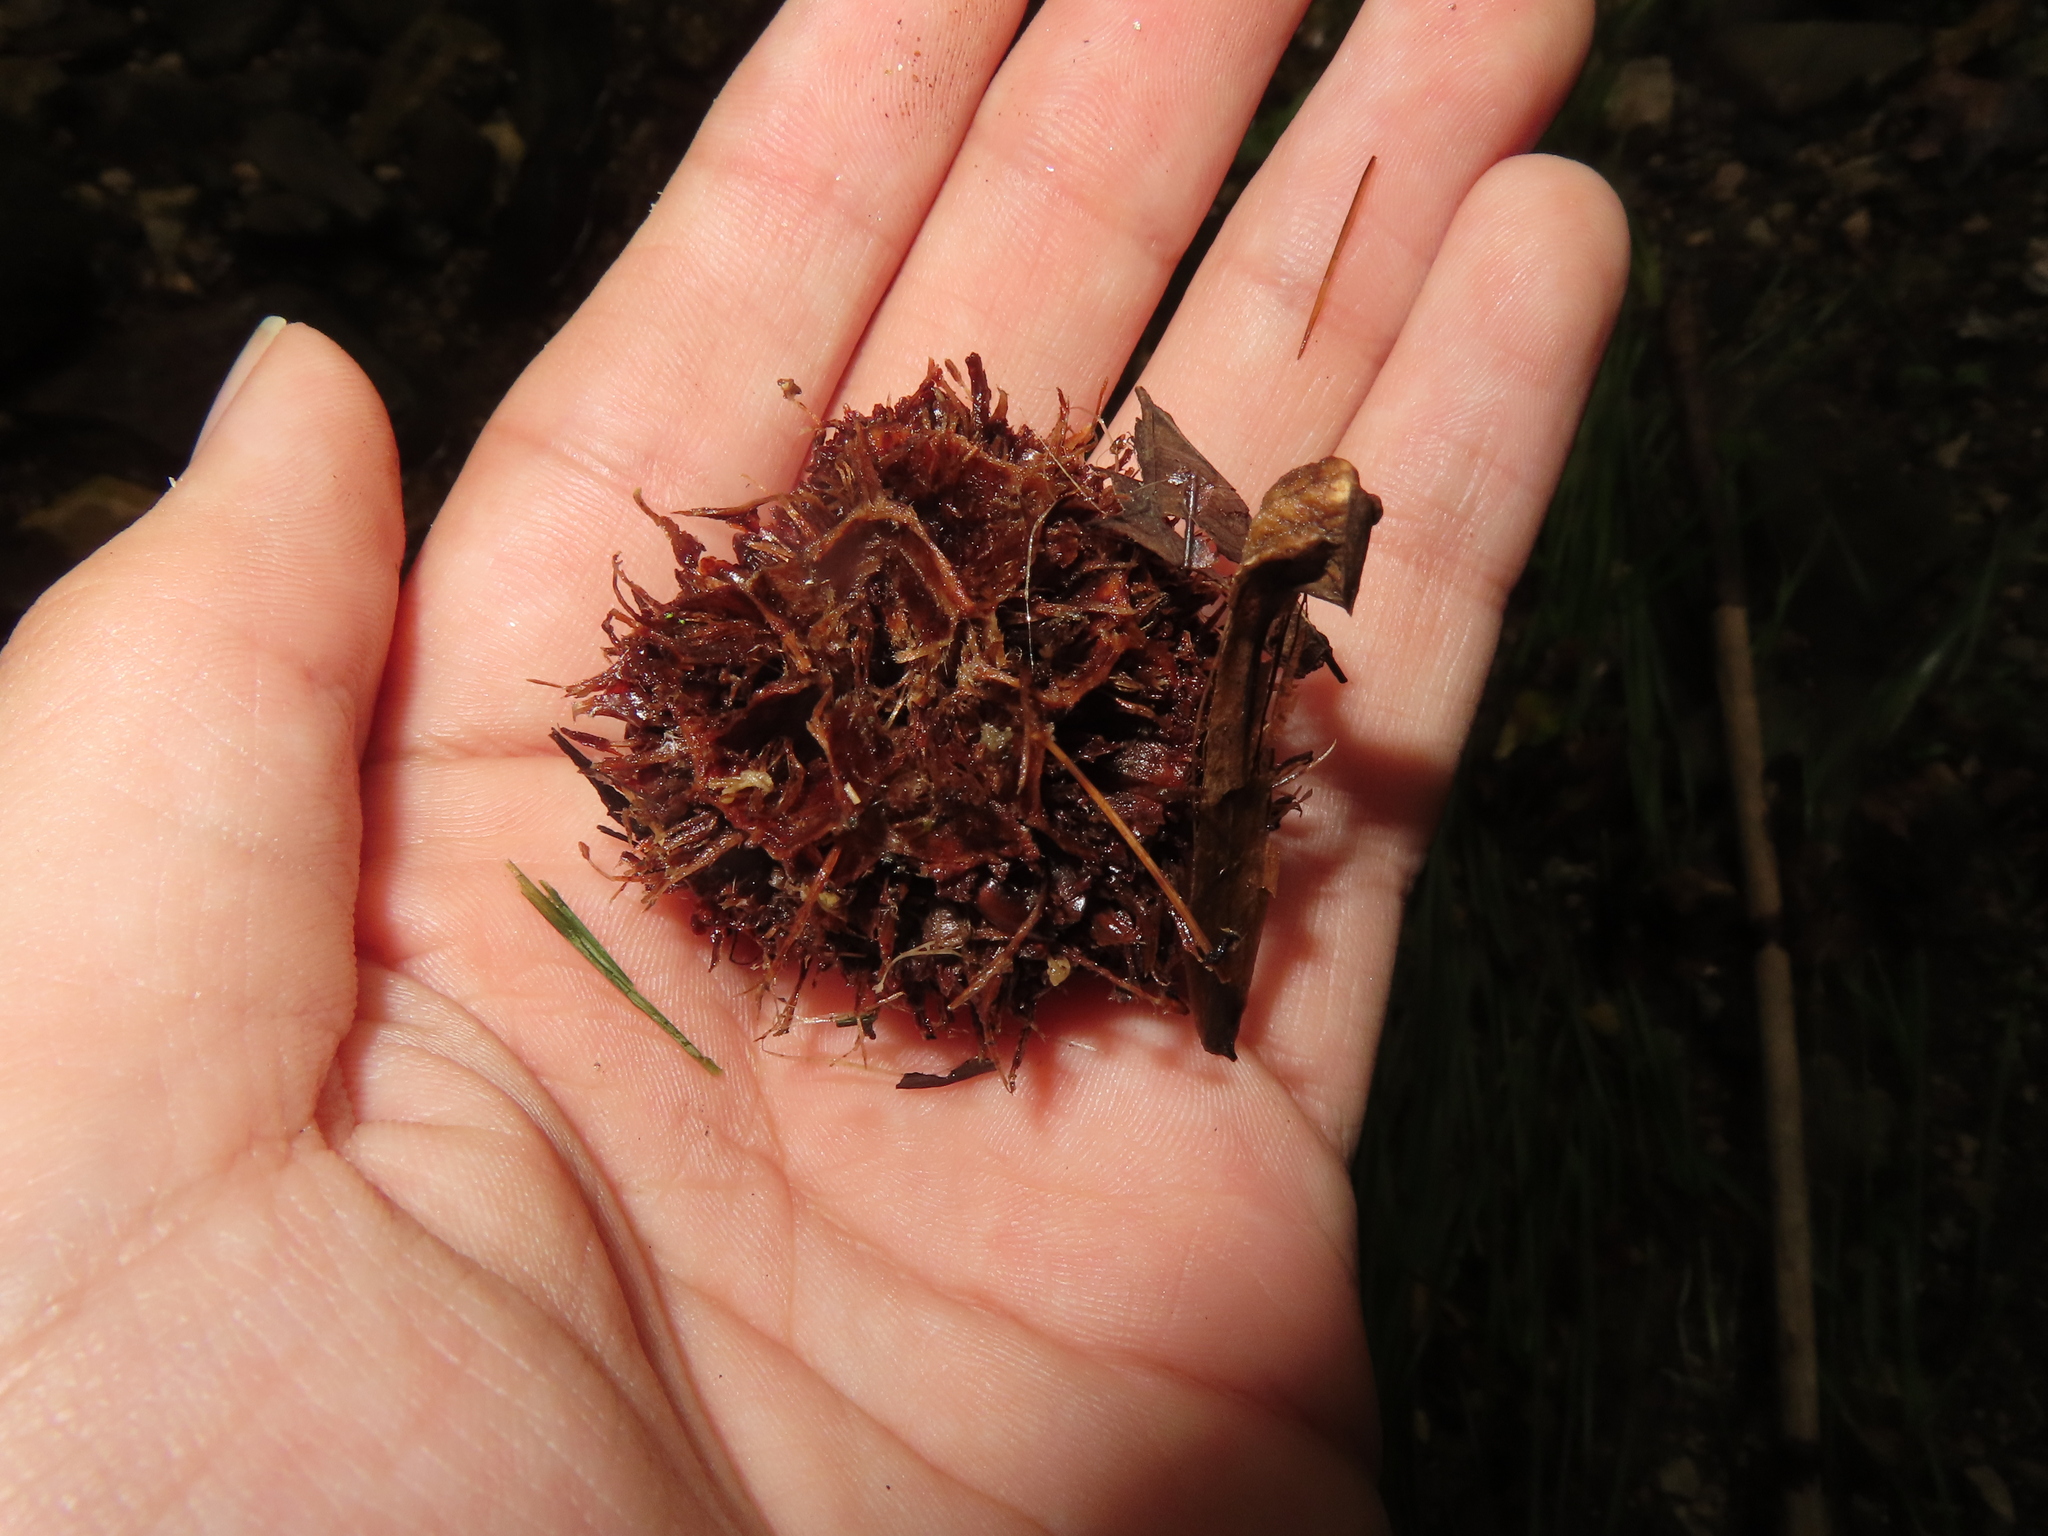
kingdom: Plantae
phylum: Tracheophyta
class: Magnoliopsida
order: Saxifragales
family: Altingiaceae
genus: Liquidambar
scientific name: Liquidambar styraciflua
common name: Sweet gum
